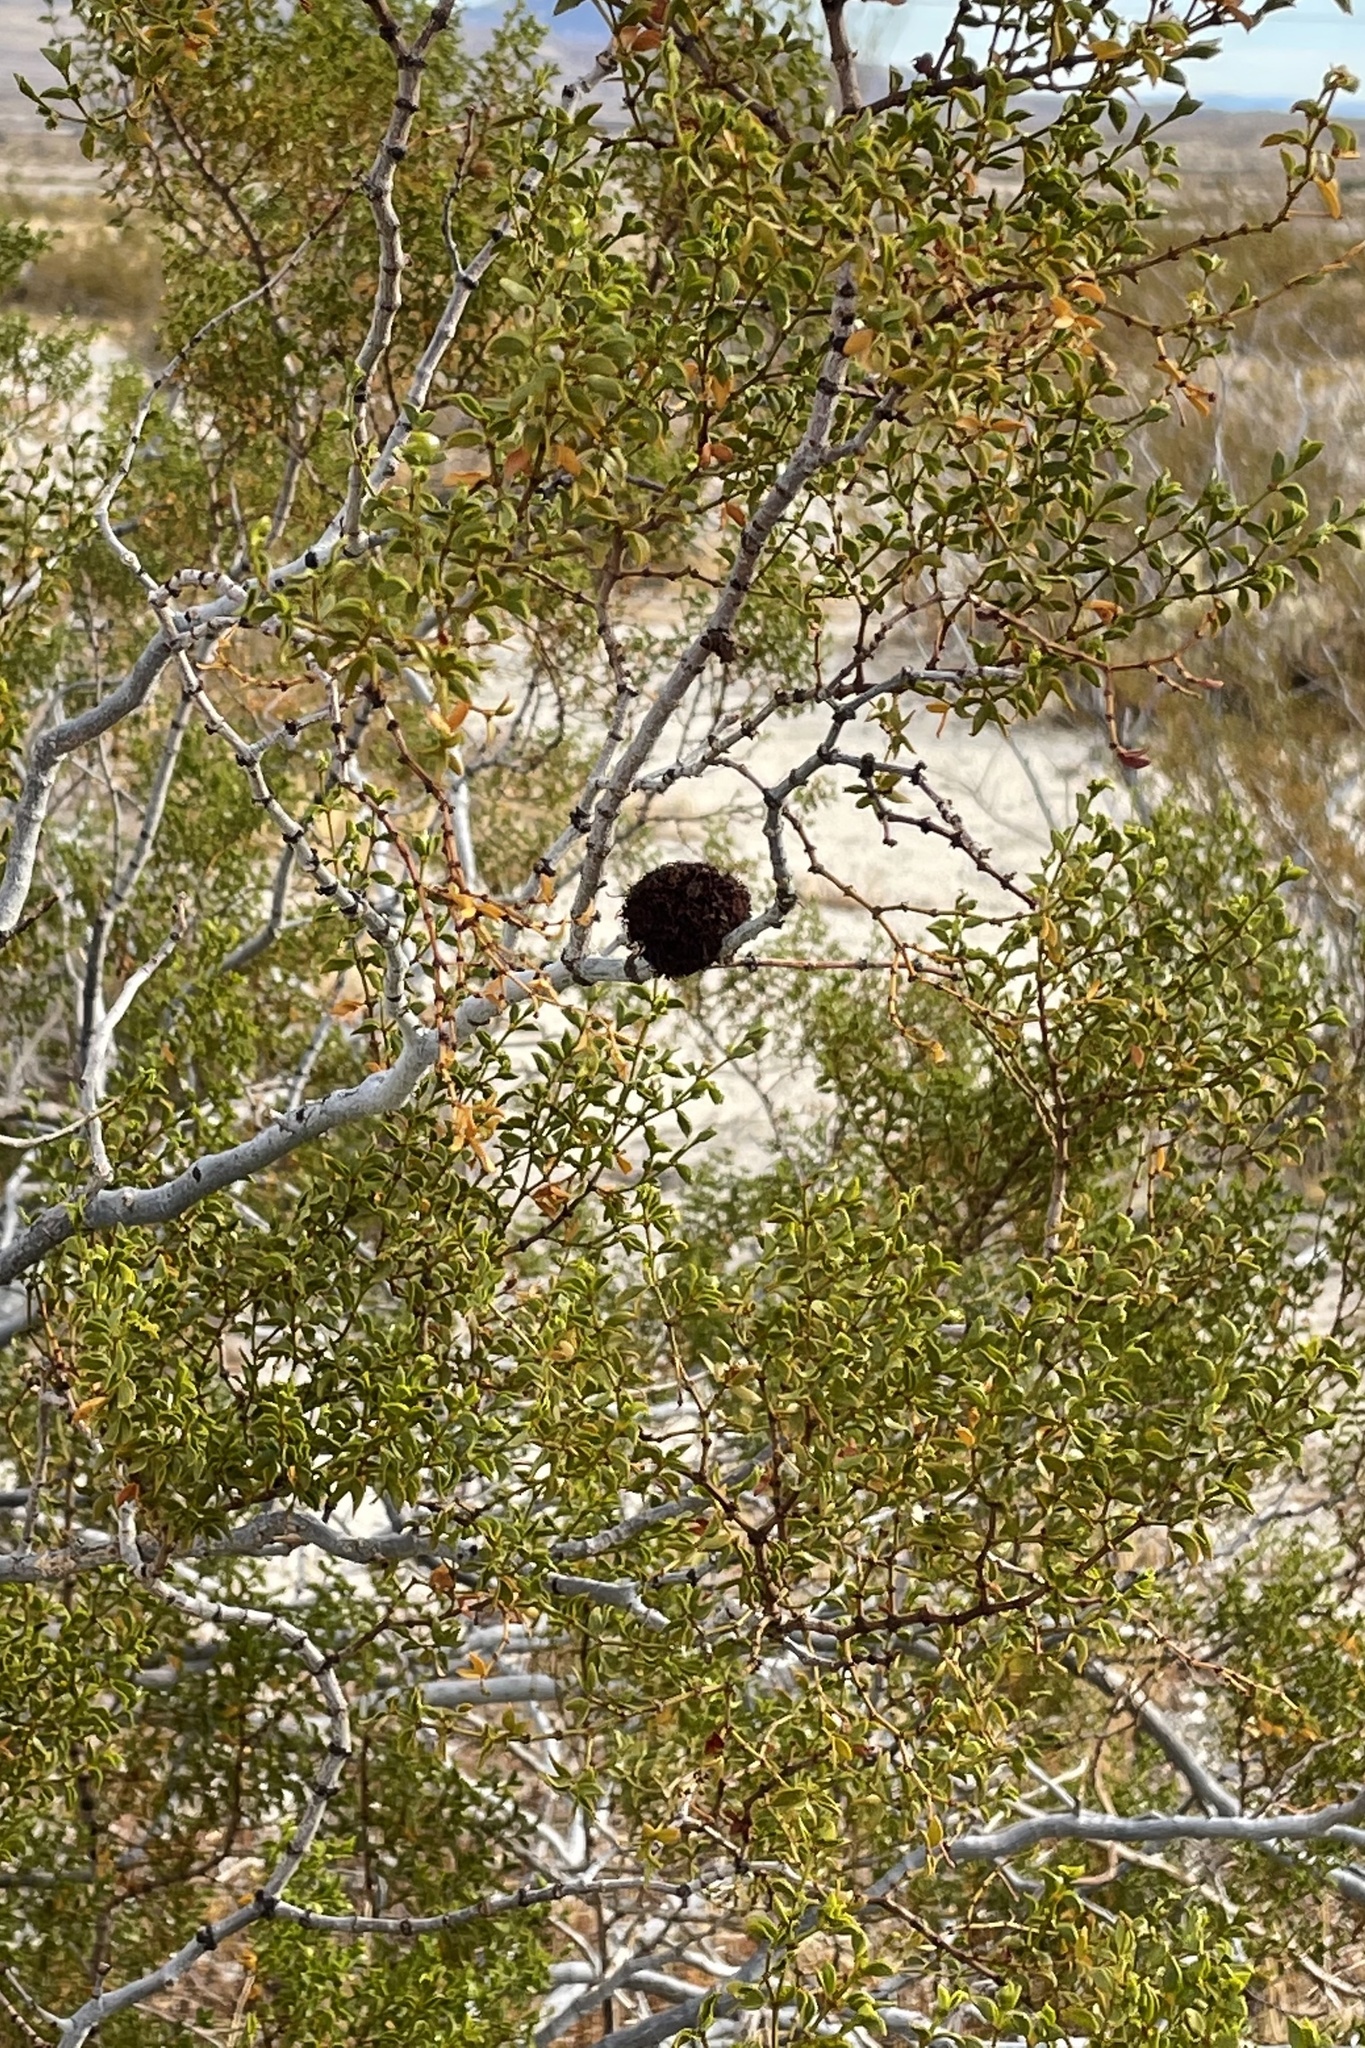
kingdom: Animalia
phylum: Arthropoda
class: Insecta
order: Diptera
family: Cecidomyiidae
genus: Asphondylia
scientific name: Asphondylia auripila
